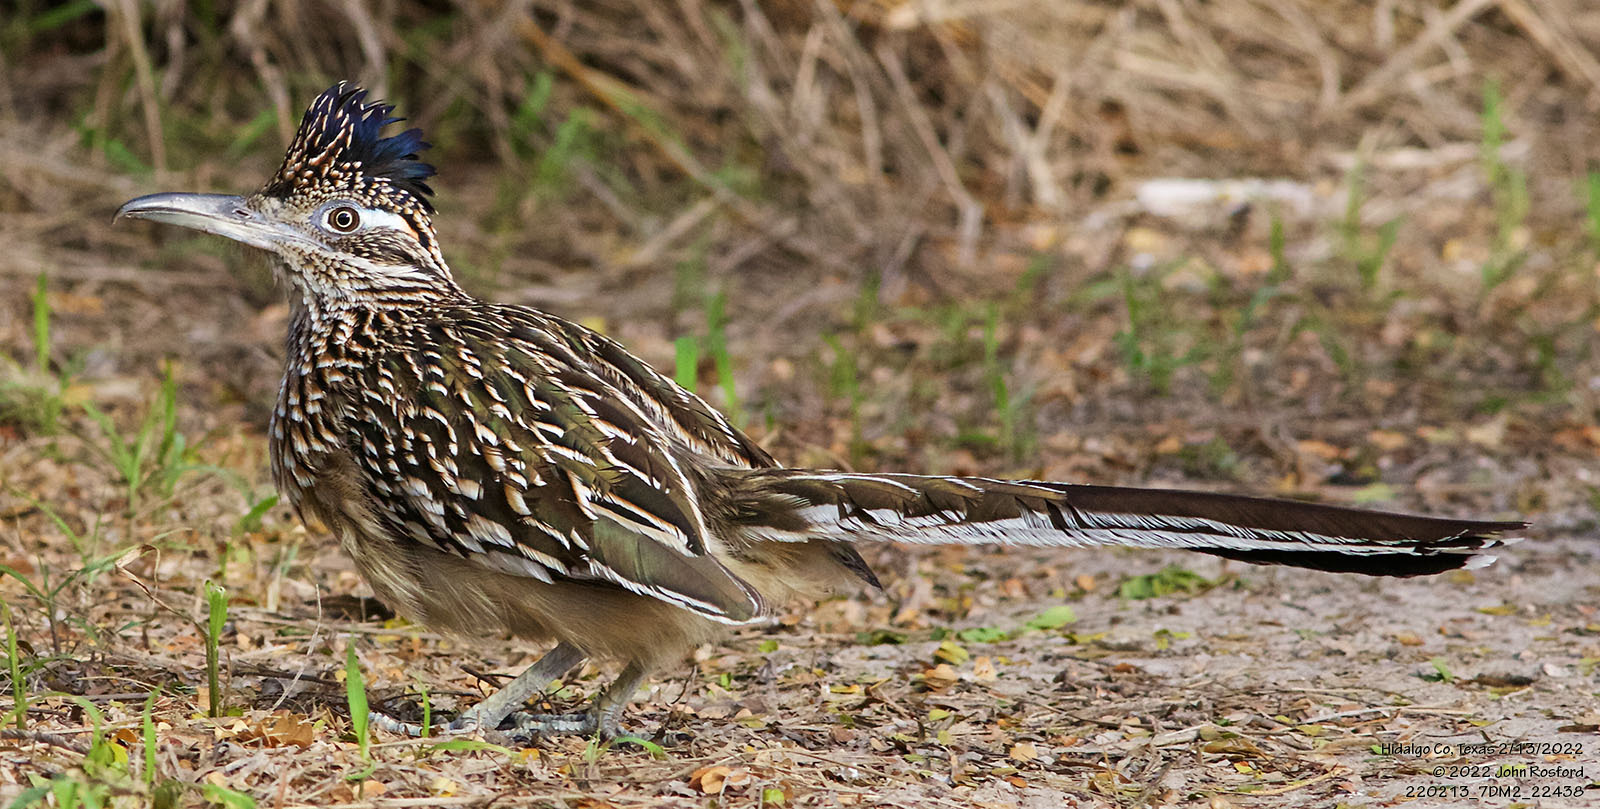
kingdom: Animalia
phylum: Chordata
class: Aves
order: Cuculiformes
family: Cuculidae
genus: Geococcyx
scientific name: Geococcyx californianus
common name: Greater roadrunner
